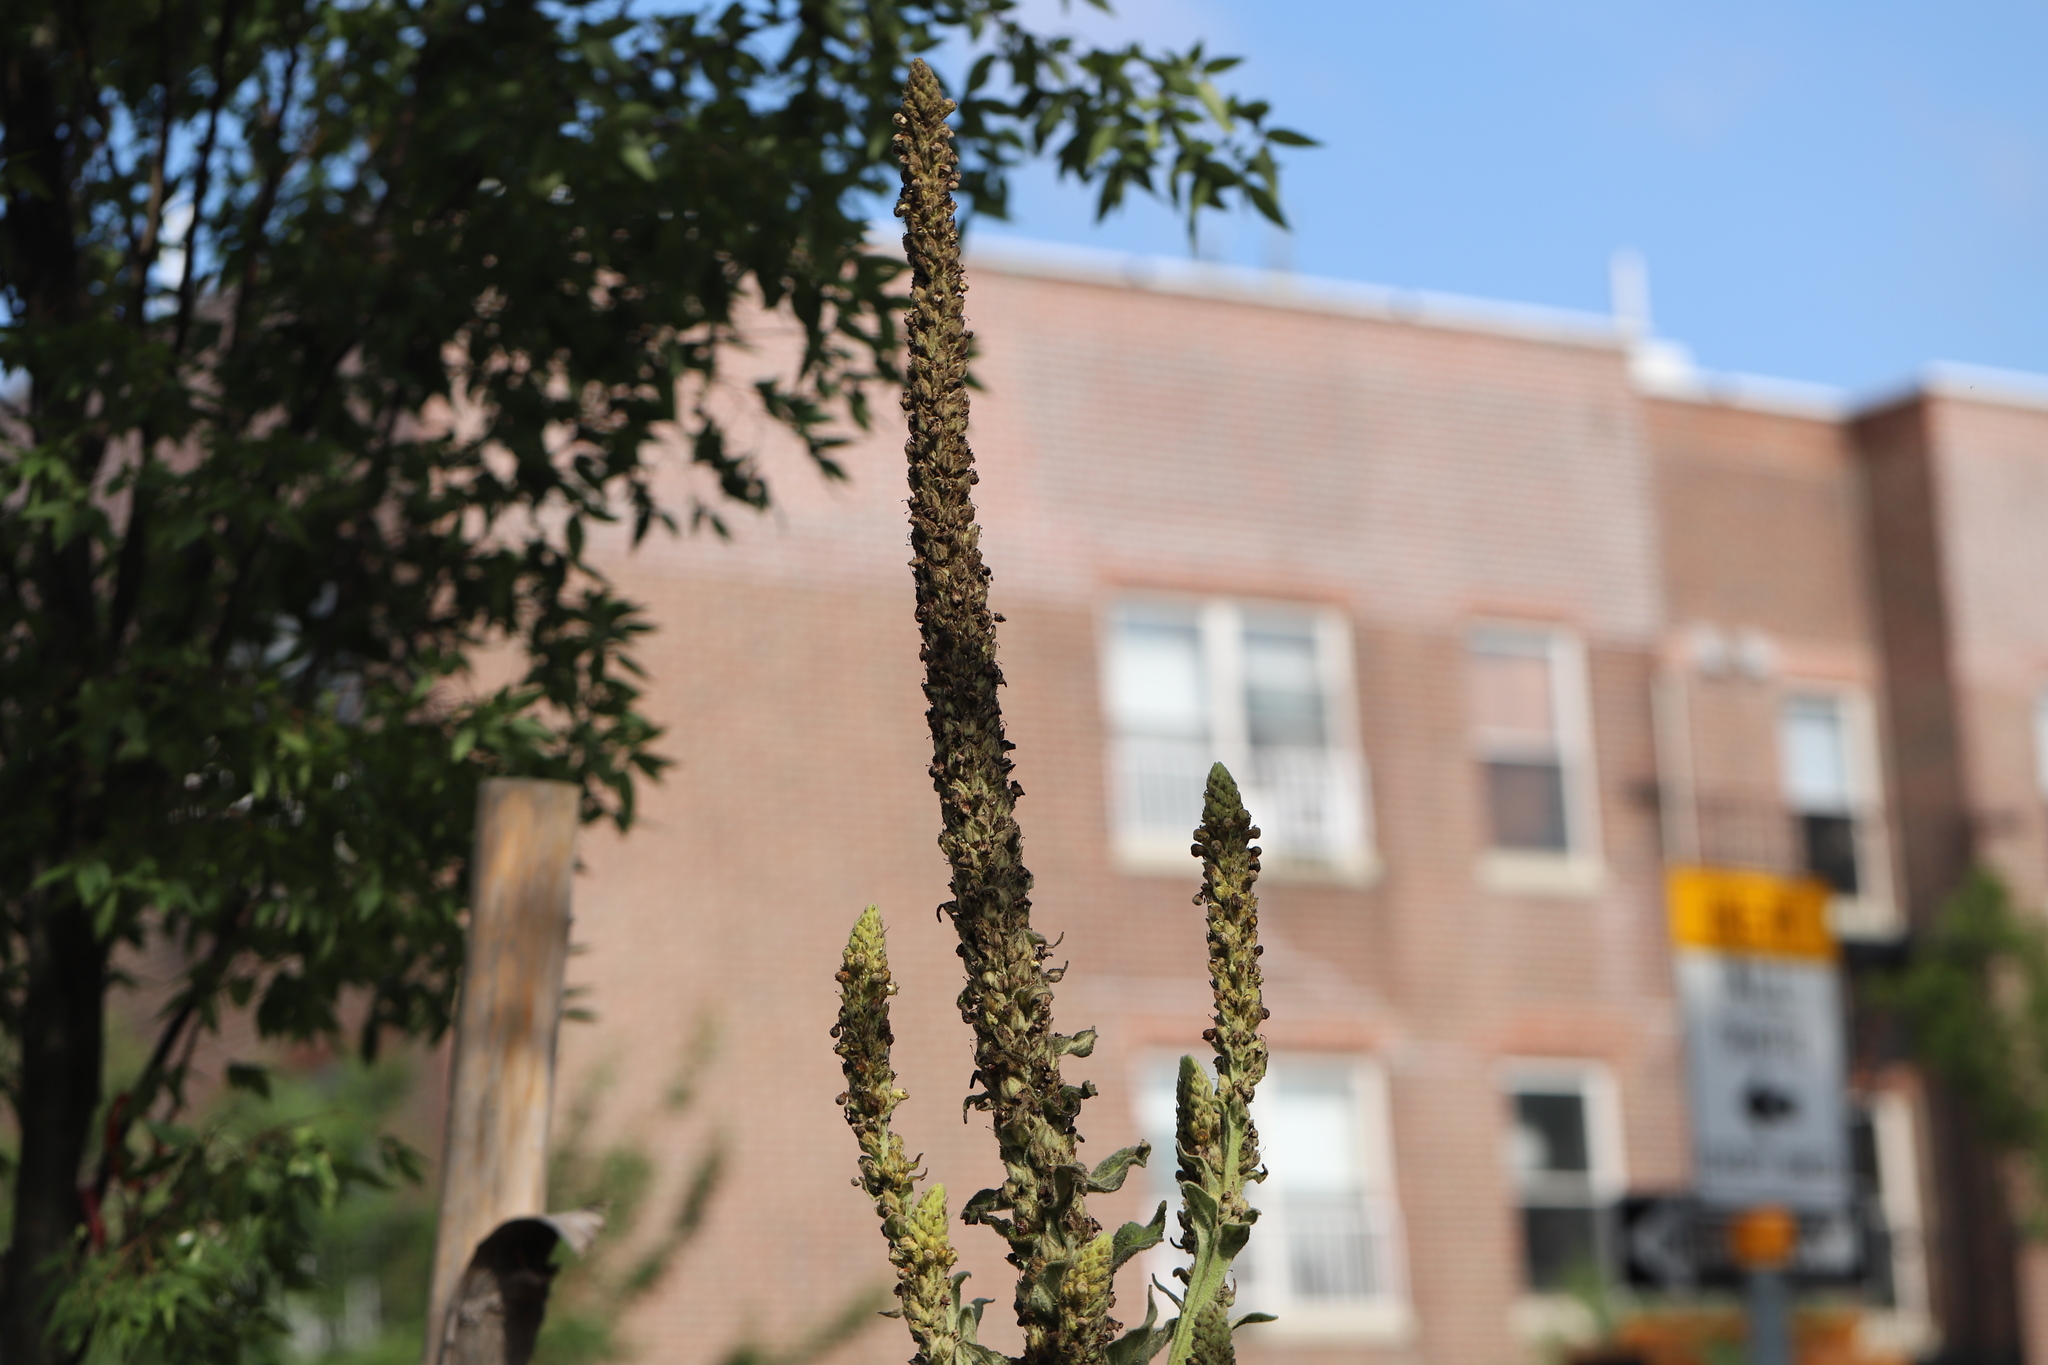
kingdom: Plantae
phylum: Tracheophyta
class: Magnoliopsida
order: Lamiales
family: Scrophulariaceae
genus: Verbascum
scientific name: Verbascum thapsus
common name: Common mullein
